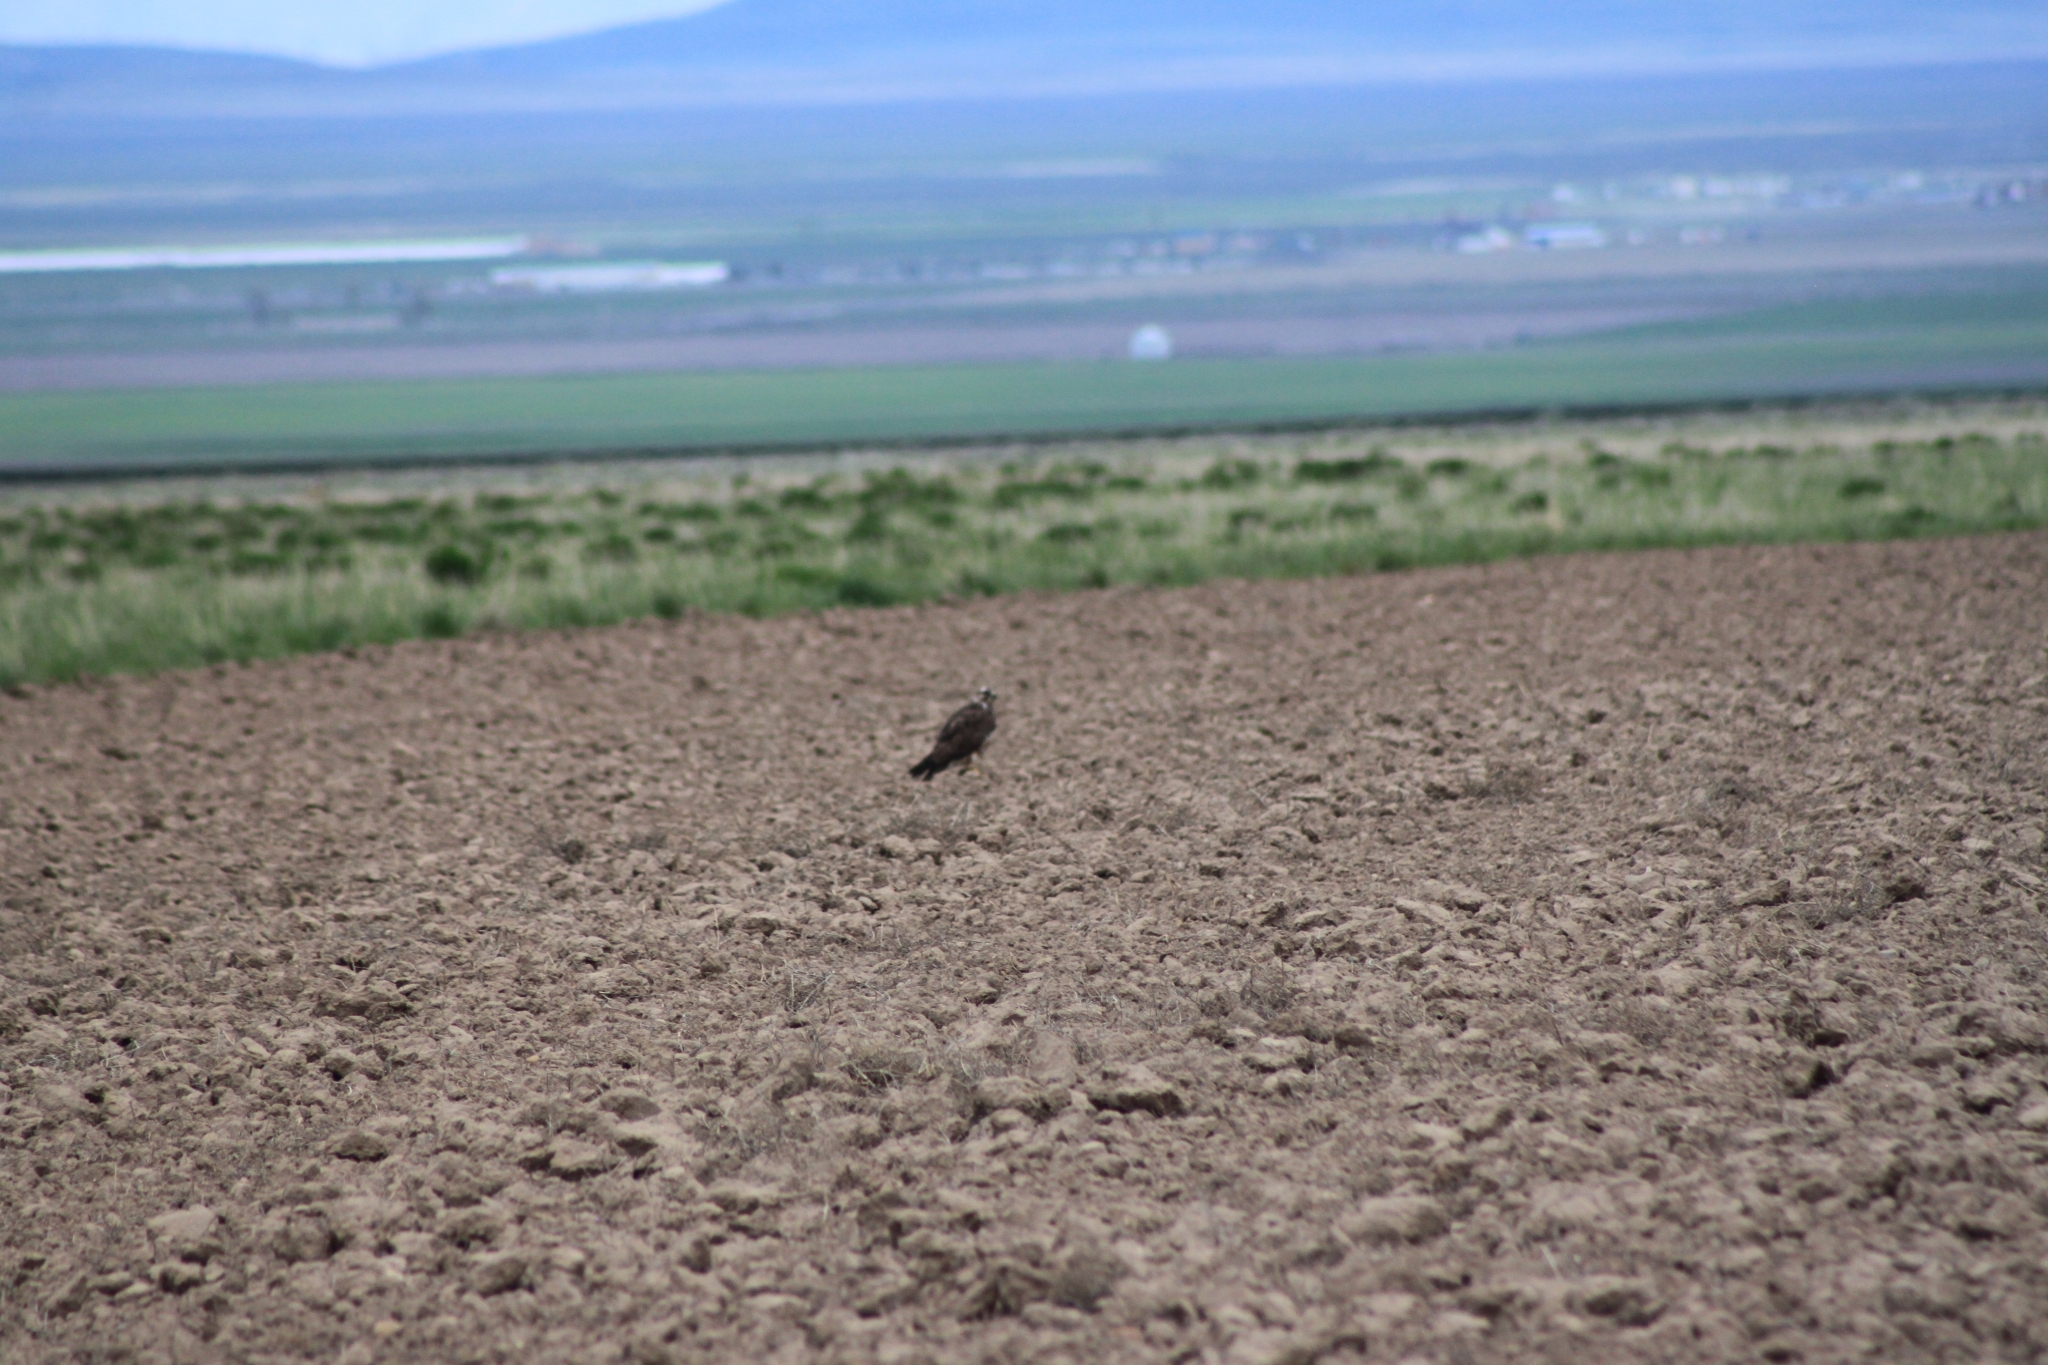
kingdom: Animalia
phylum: Chordata
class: Aves
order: Accipitriformes
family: Accipitridae
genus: Buteo
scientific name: Buteo swainsoni
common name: Swainson's hawk
